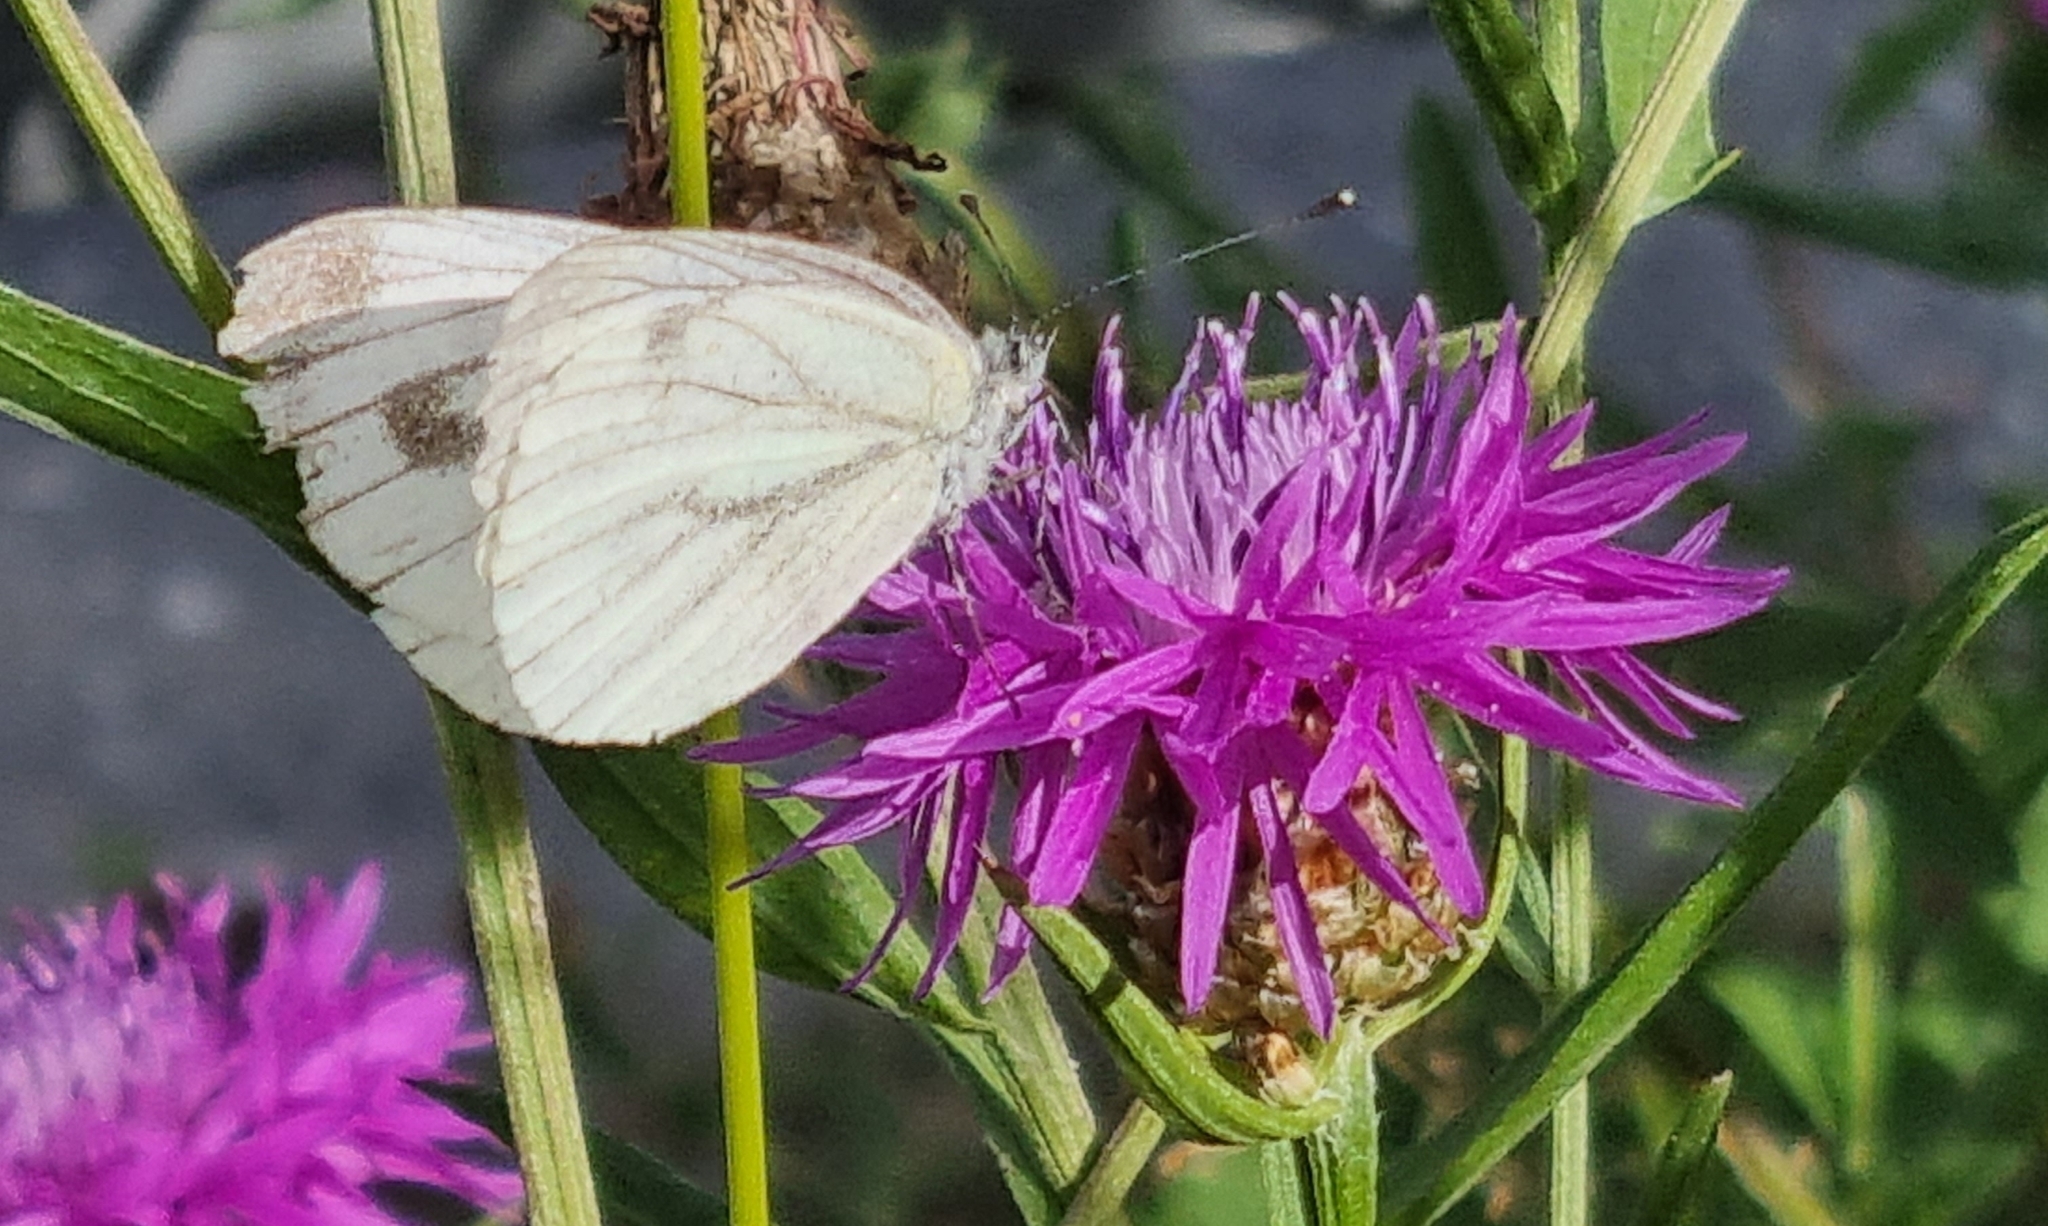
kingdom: Animalia
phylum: Arthropoda
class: Insecta
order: Lepidoptera
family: Pieridae
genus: Pieris
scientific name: Pieris napi
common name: Green-veined white
